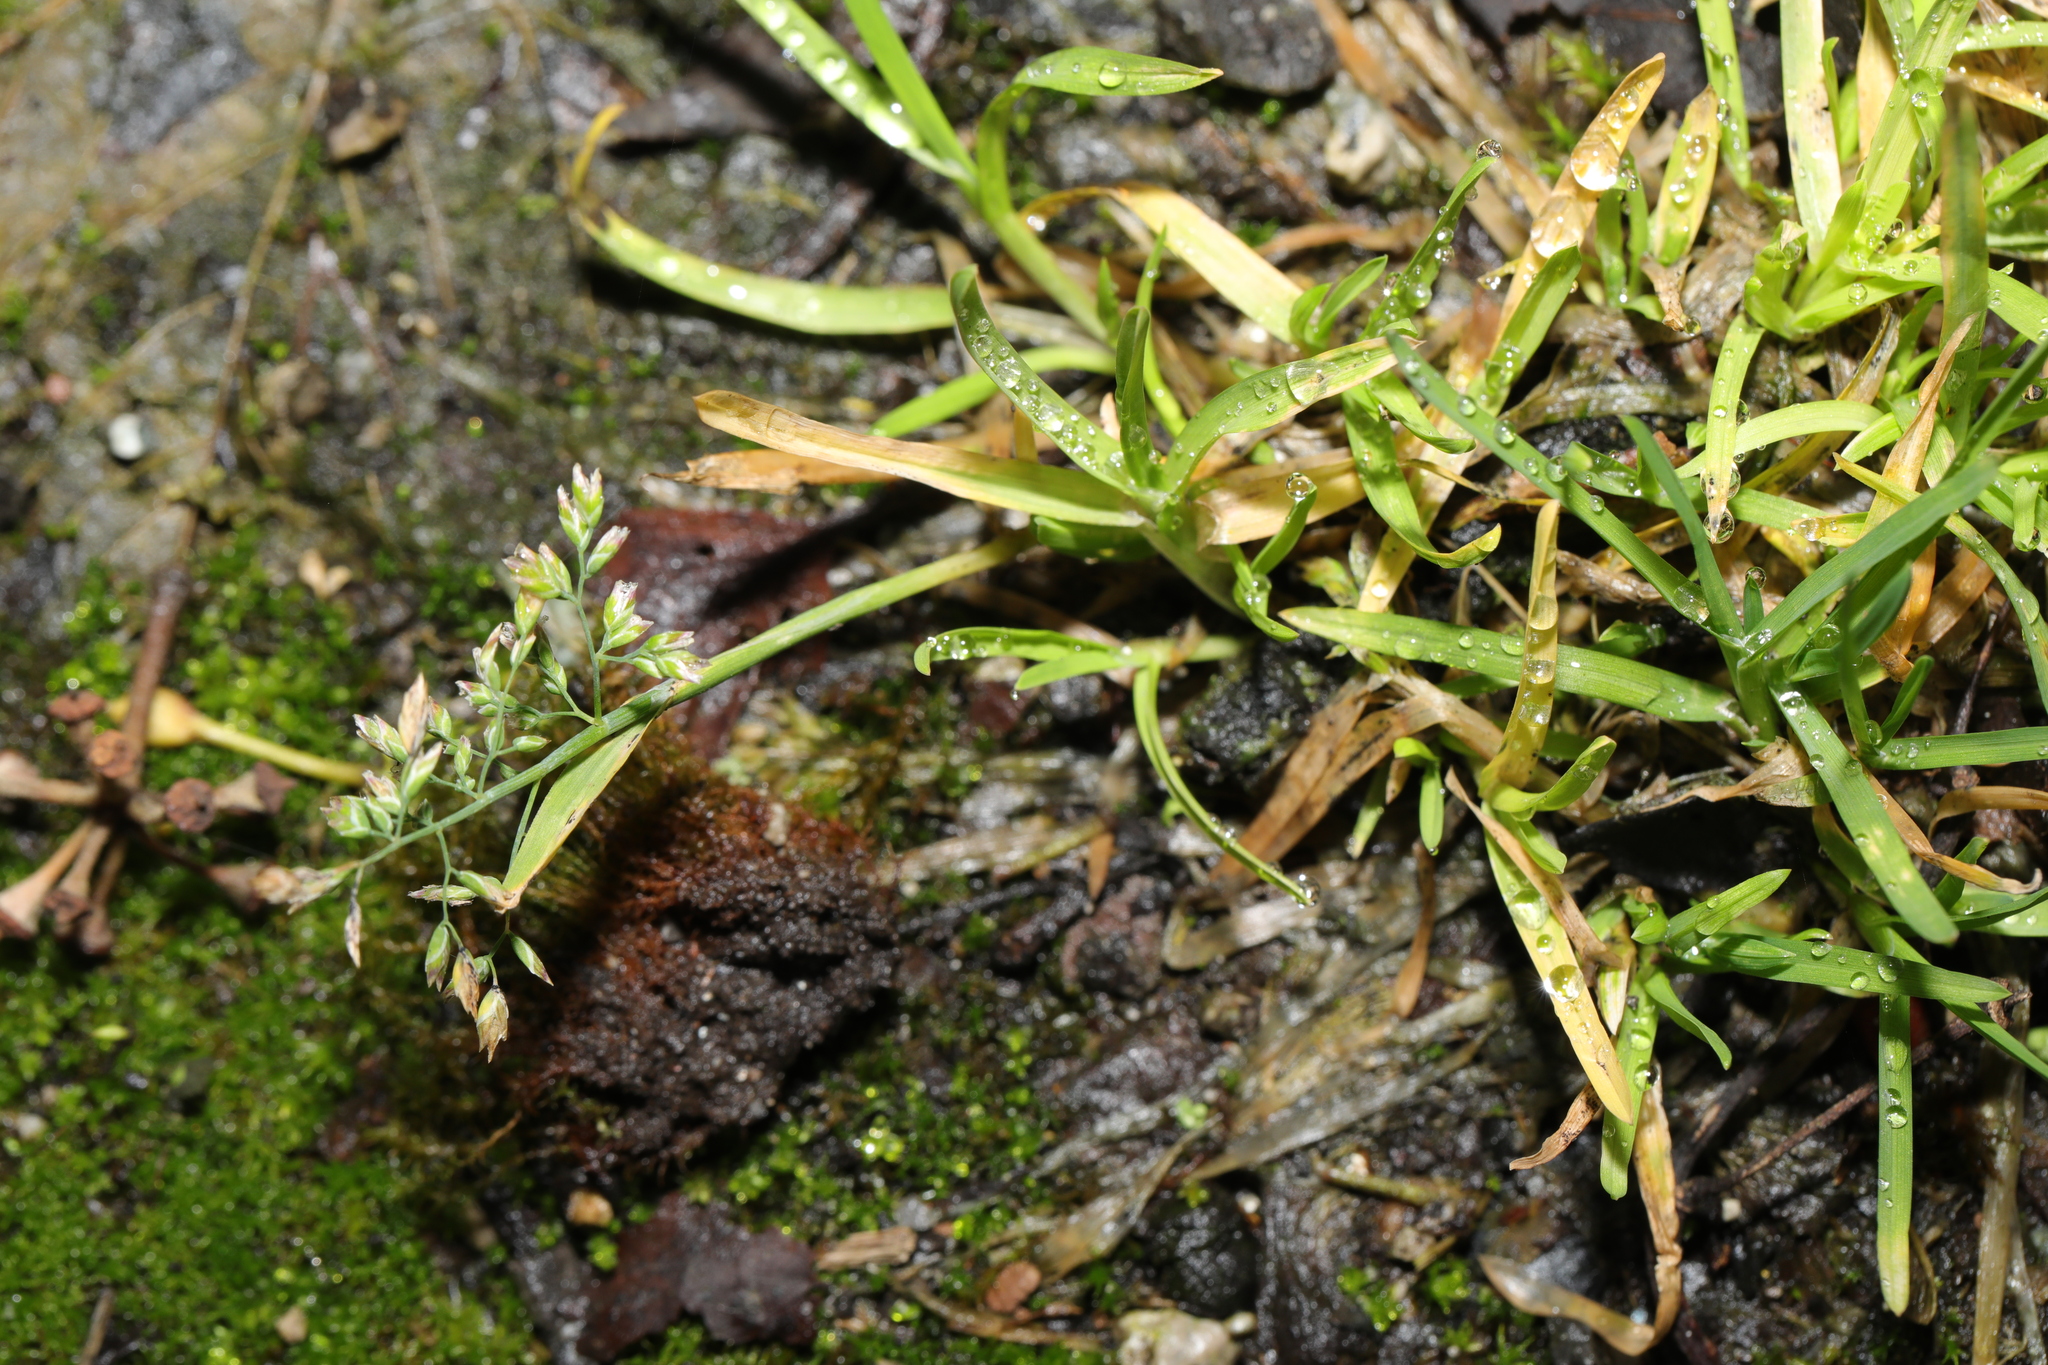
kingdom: Plantae
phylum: Tracheophyta
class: Liliopsida
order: Poales
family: Poaceae
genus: Poa
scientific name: Poa annua
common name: Annual bluegrass
